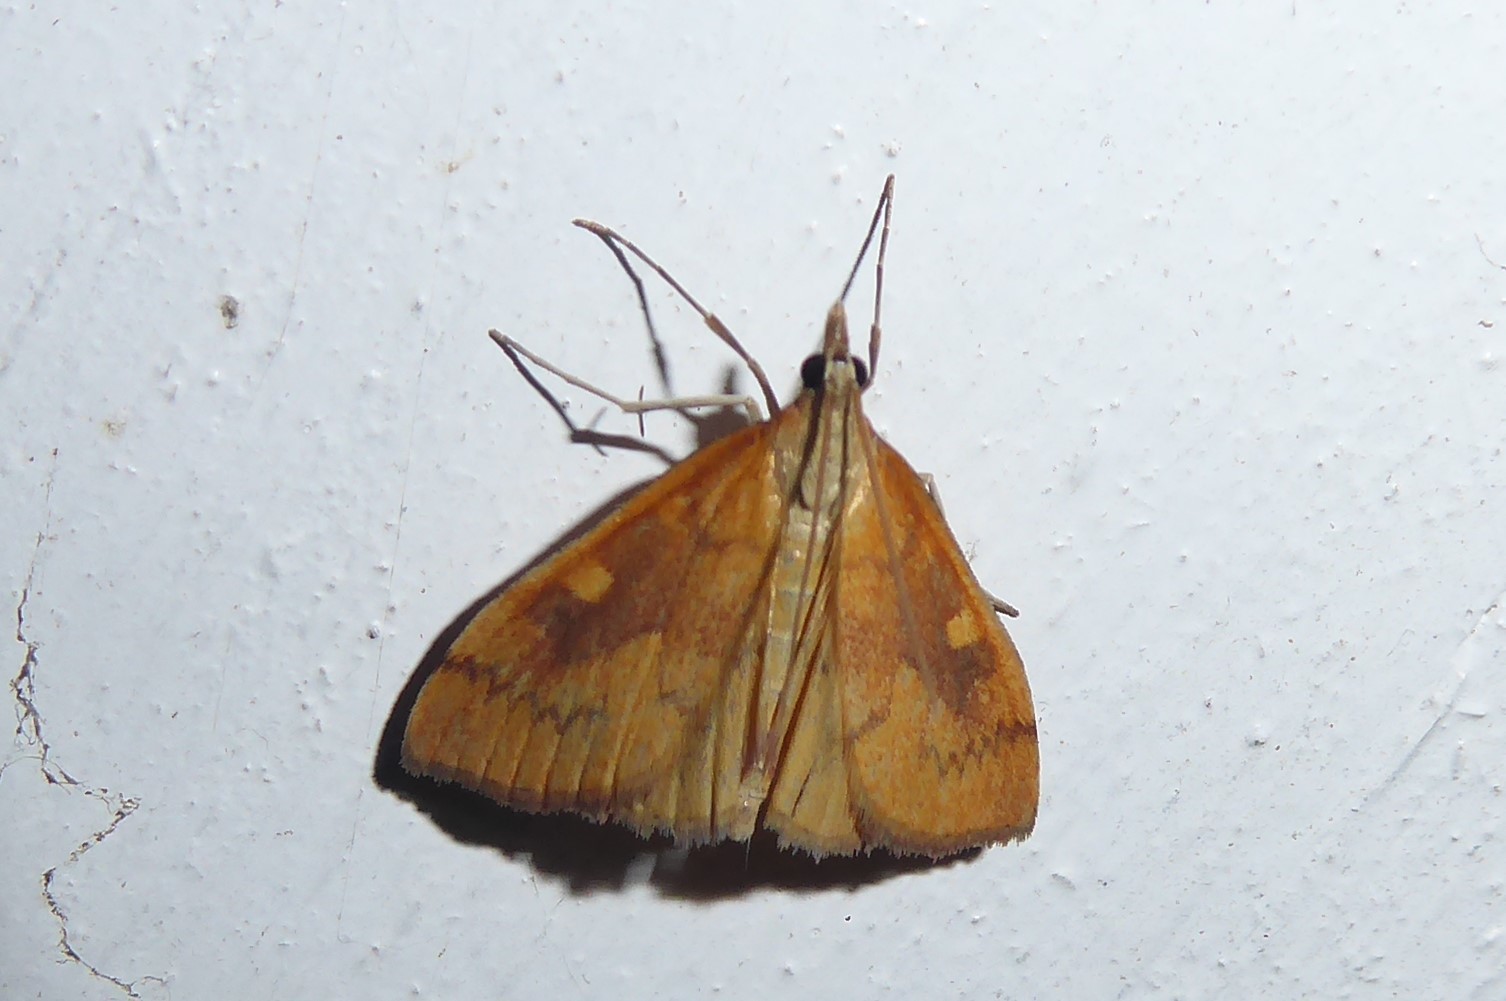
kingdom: Animalia
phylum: Arthropoda
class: Insecta
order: Lepidoptera
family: Crambidae
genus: Udea
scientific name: Udea Mnesictena flavidalis
